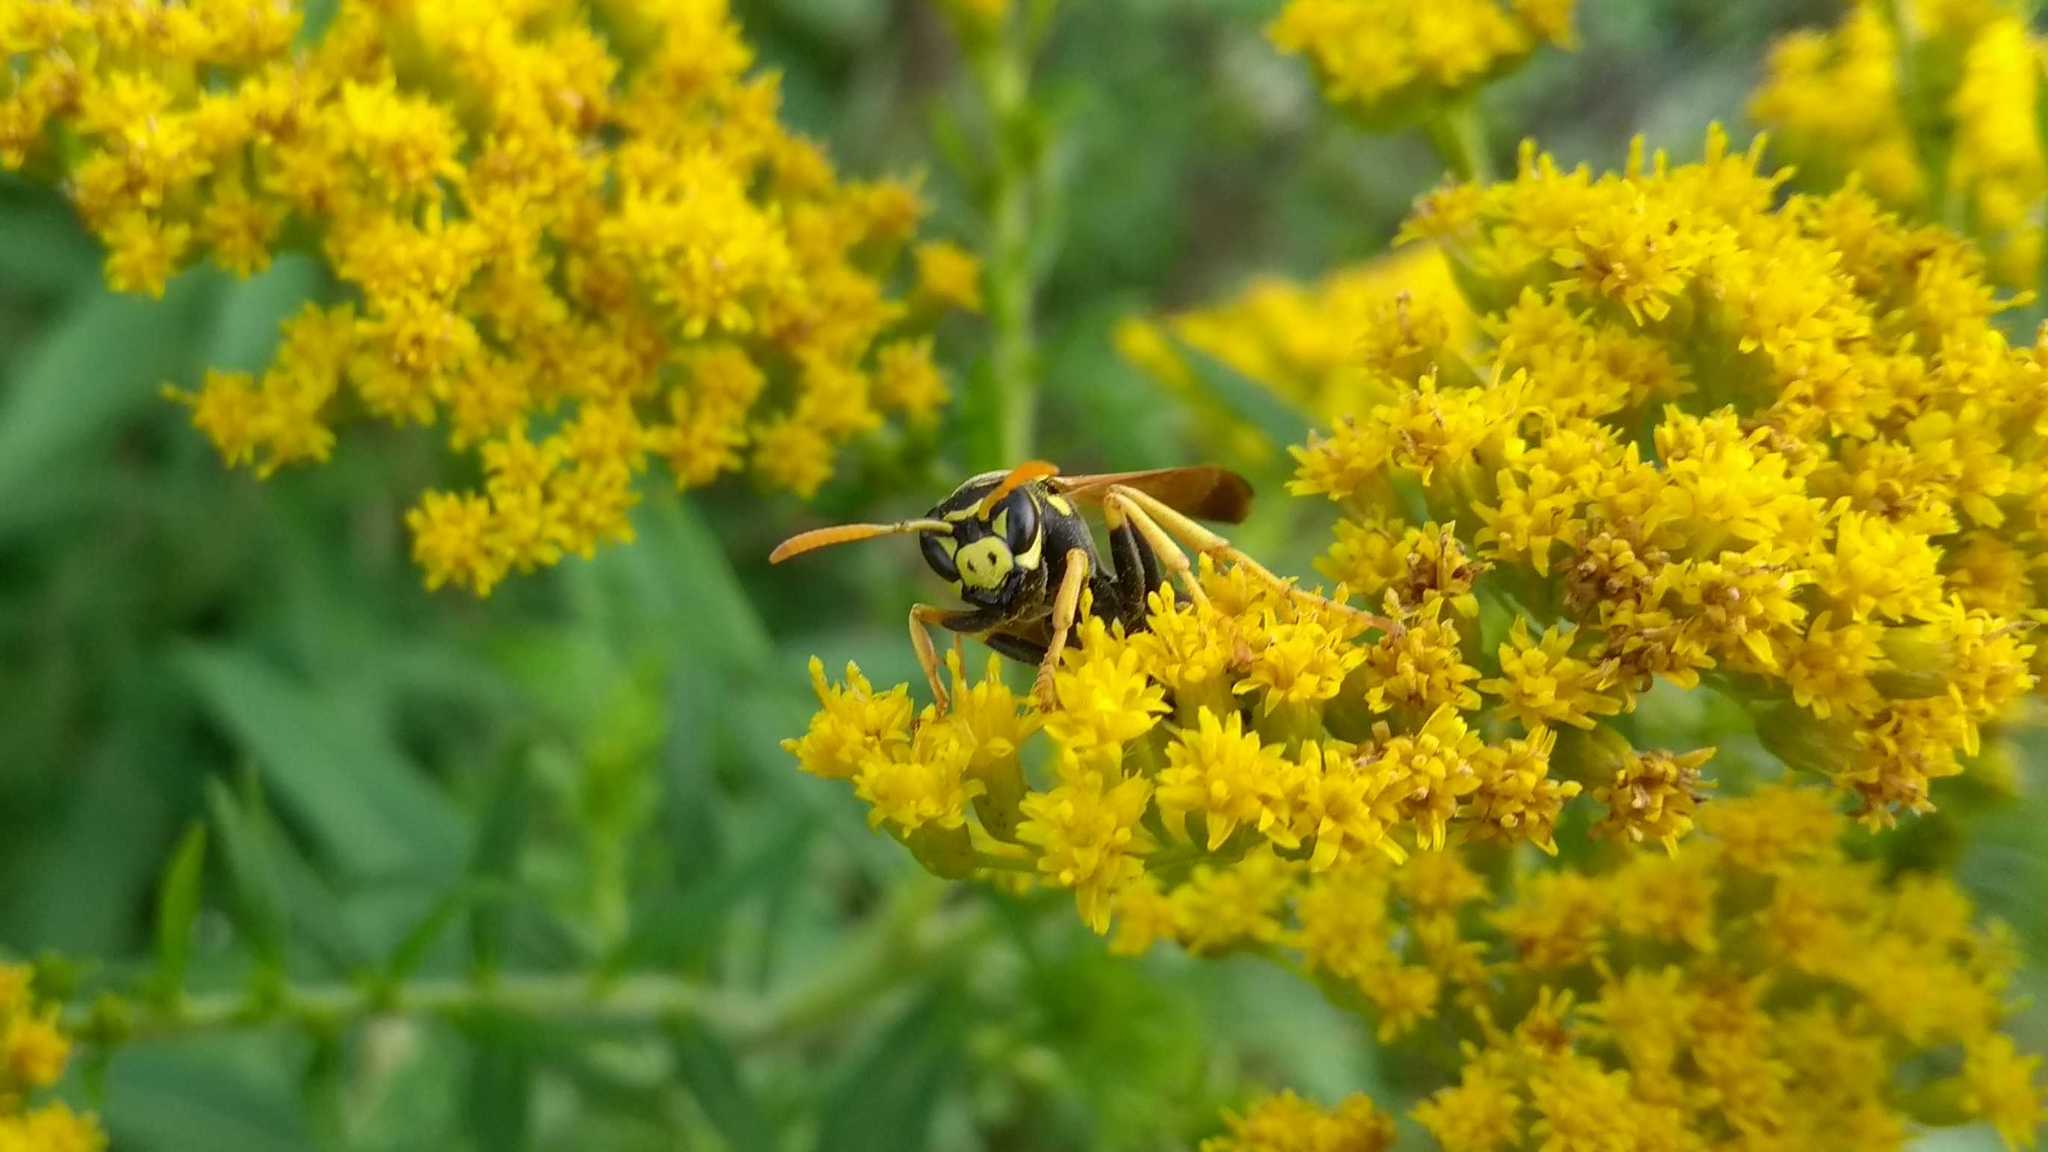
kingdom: Animalia
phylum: Arthropoda
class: Insecta
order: Hymenoptera
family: Eumenidae
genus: Polistes
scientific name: Polistes dominula
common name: Paper wasp
